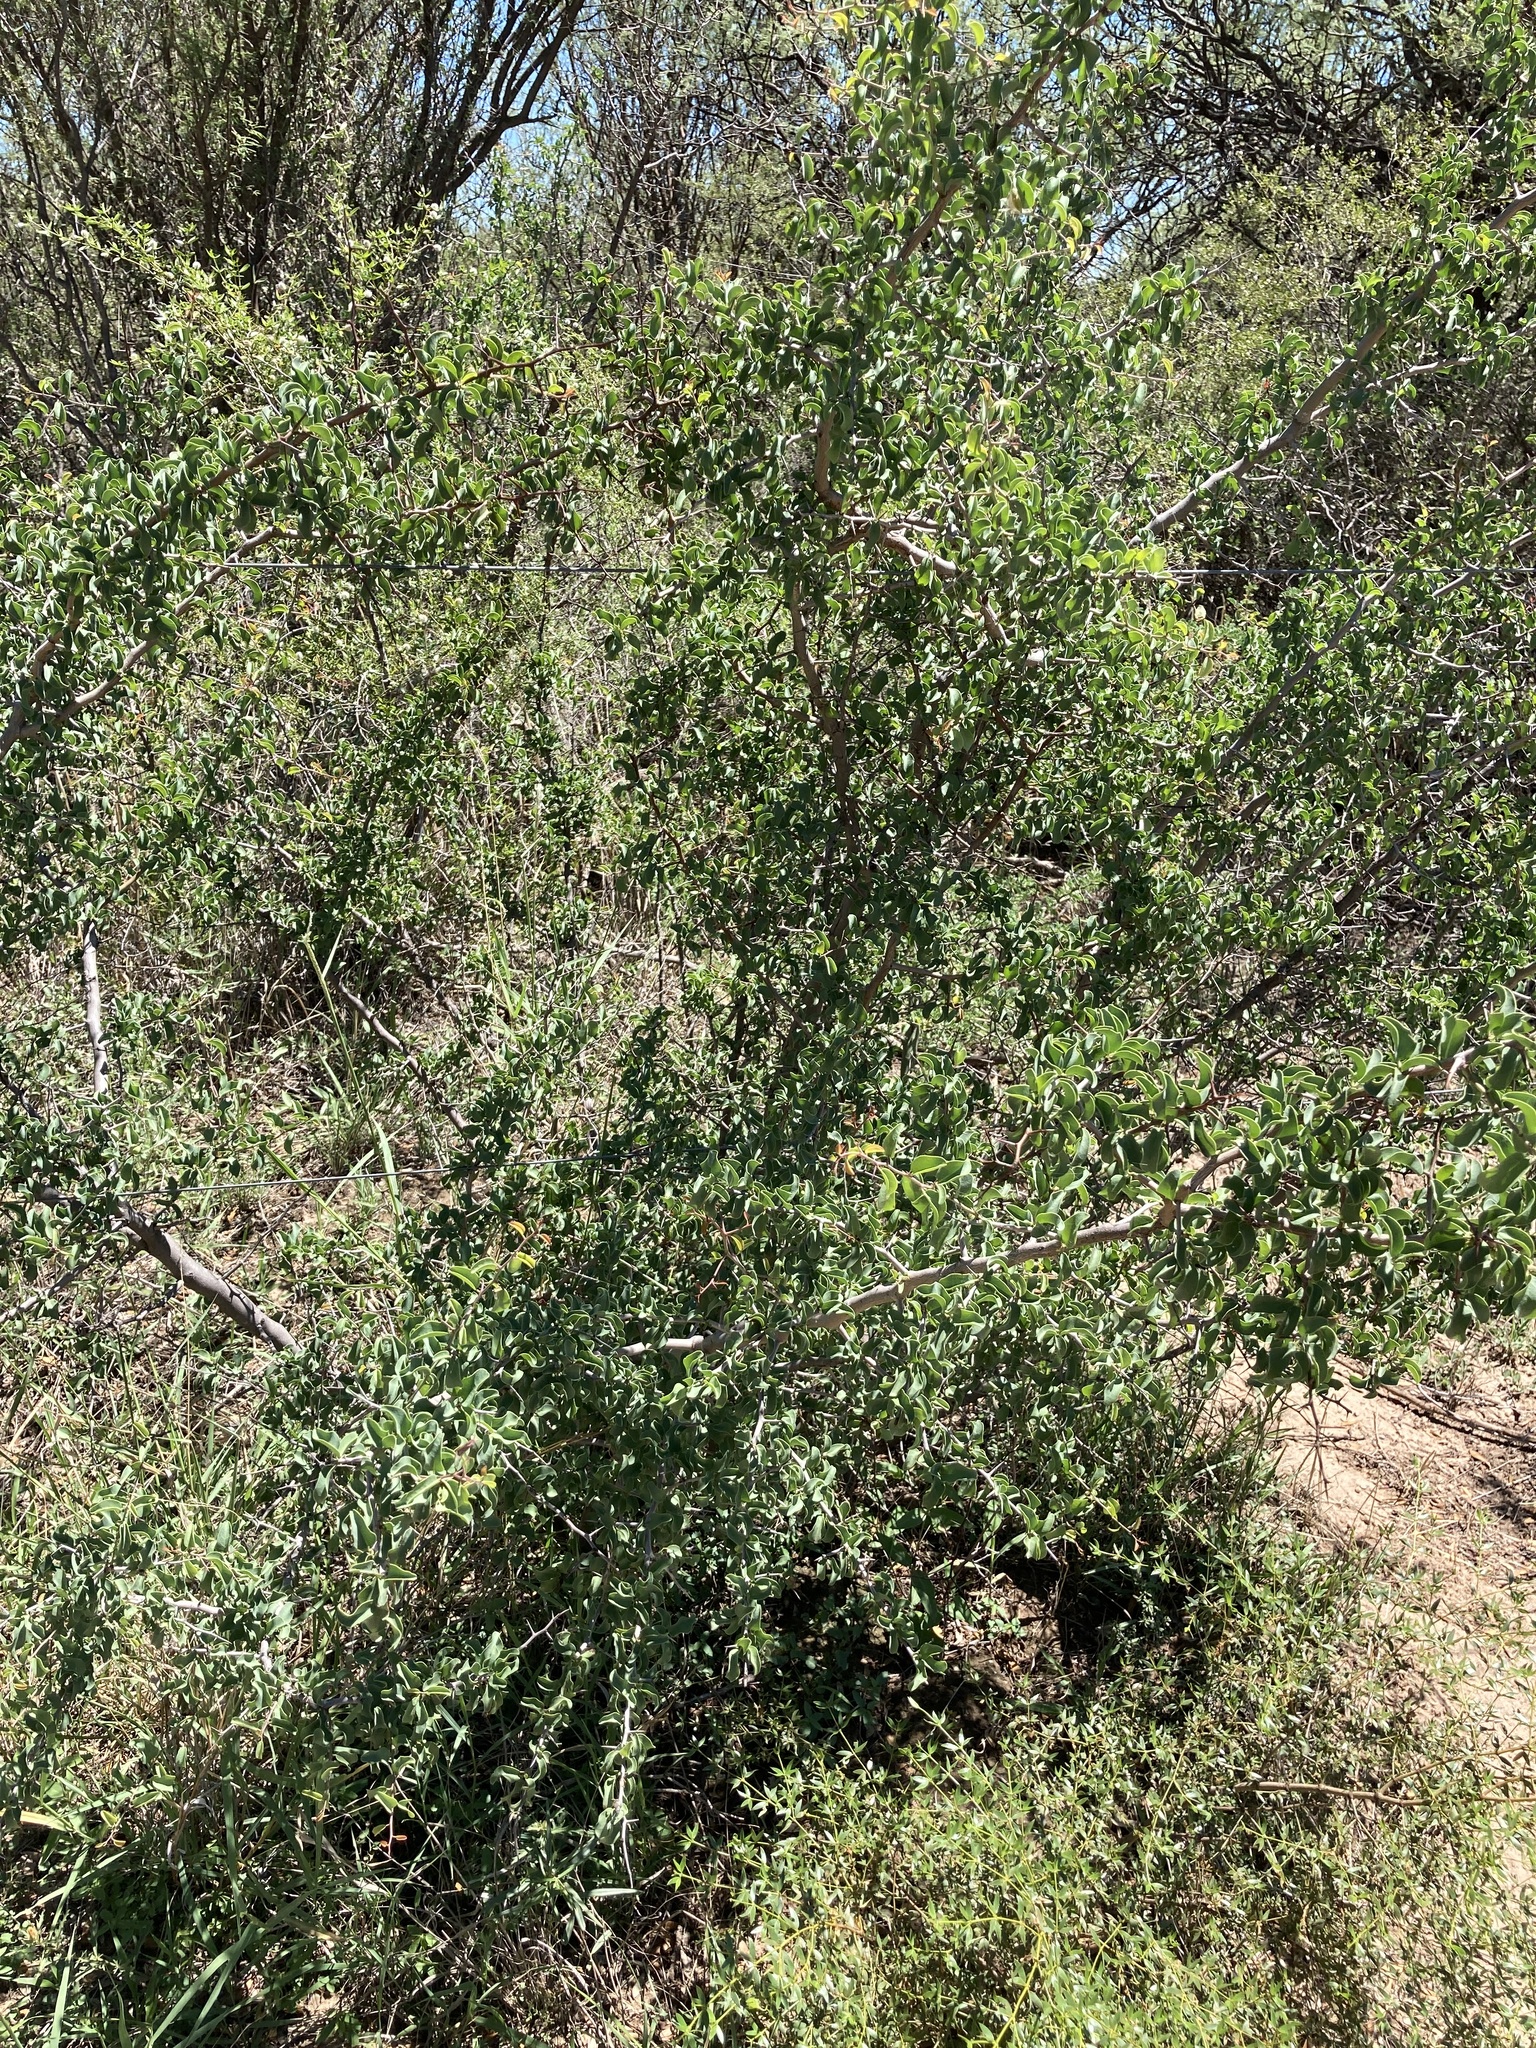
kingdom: Plantae
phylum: Tracheophyta
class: Magnoliopsida
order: Santalales
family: Ximeniaceae
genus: Ximenia
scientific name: Ximenia americana
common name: Tallowwood
